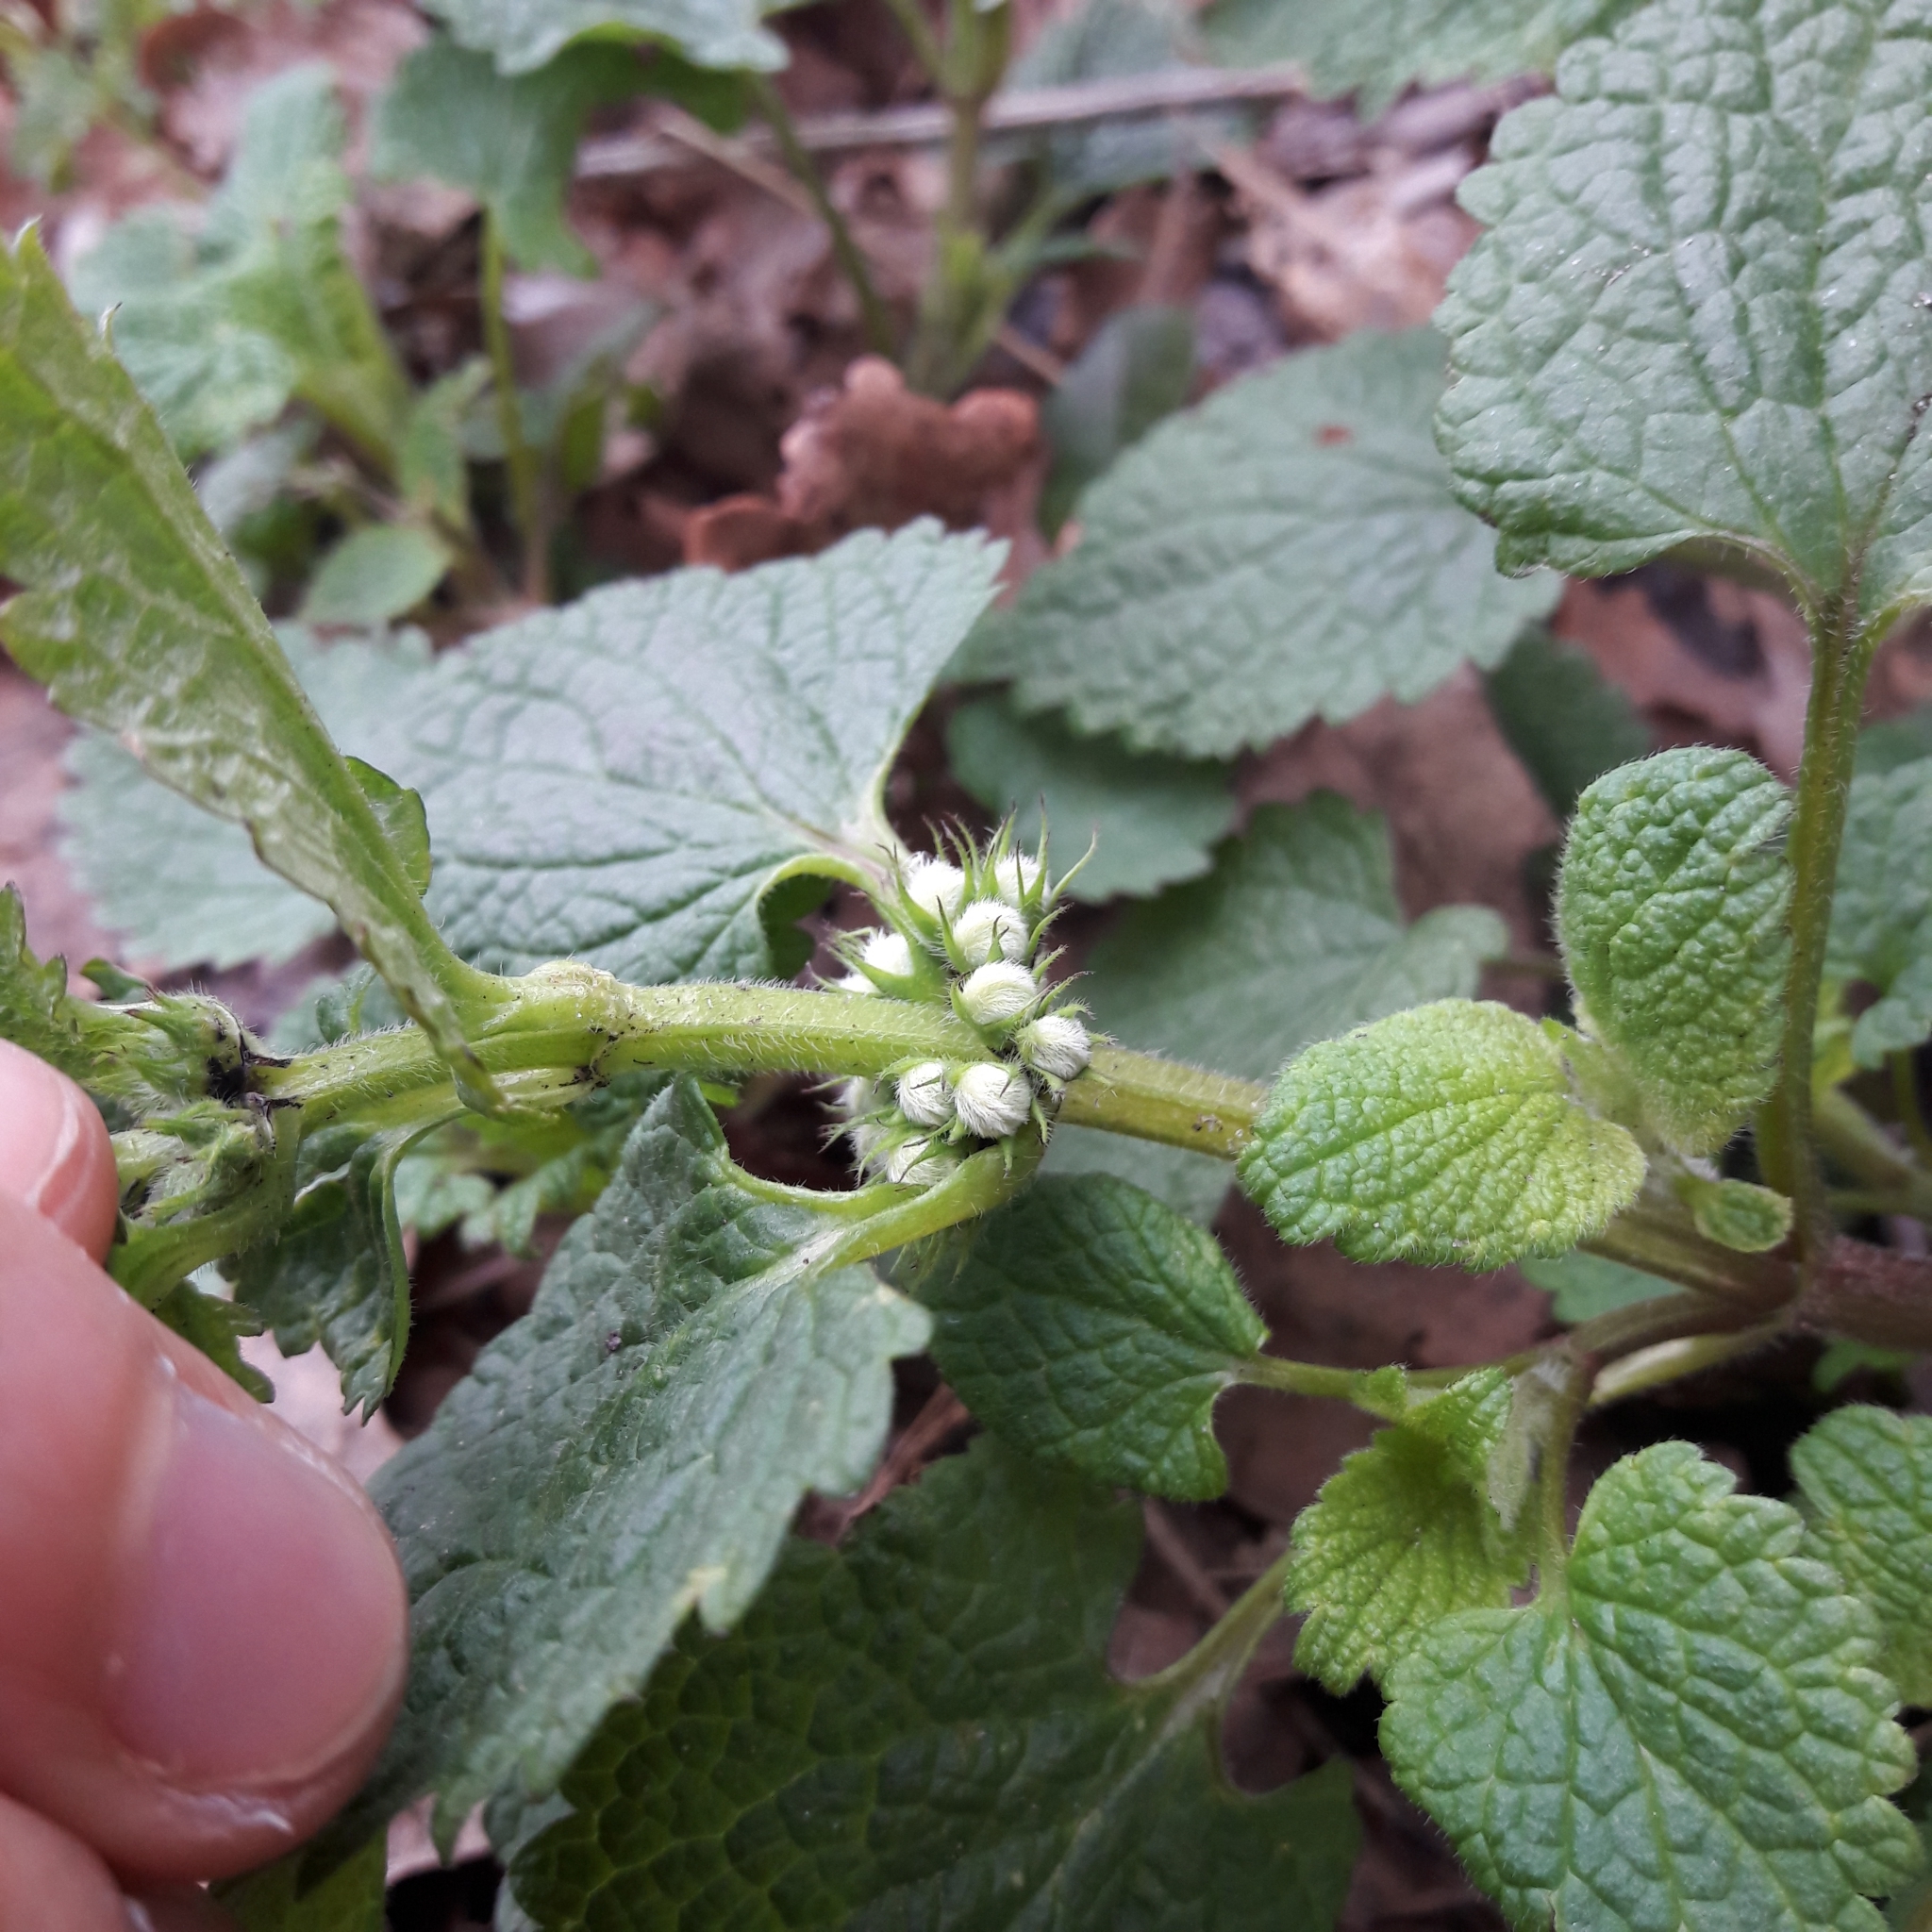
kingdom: Plantae
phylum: Tracheophyta
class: Magnoliopsida
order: Lamiales
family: Lamiaceae
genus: Lamium
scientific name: Lamium album
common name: White dead-nettle
